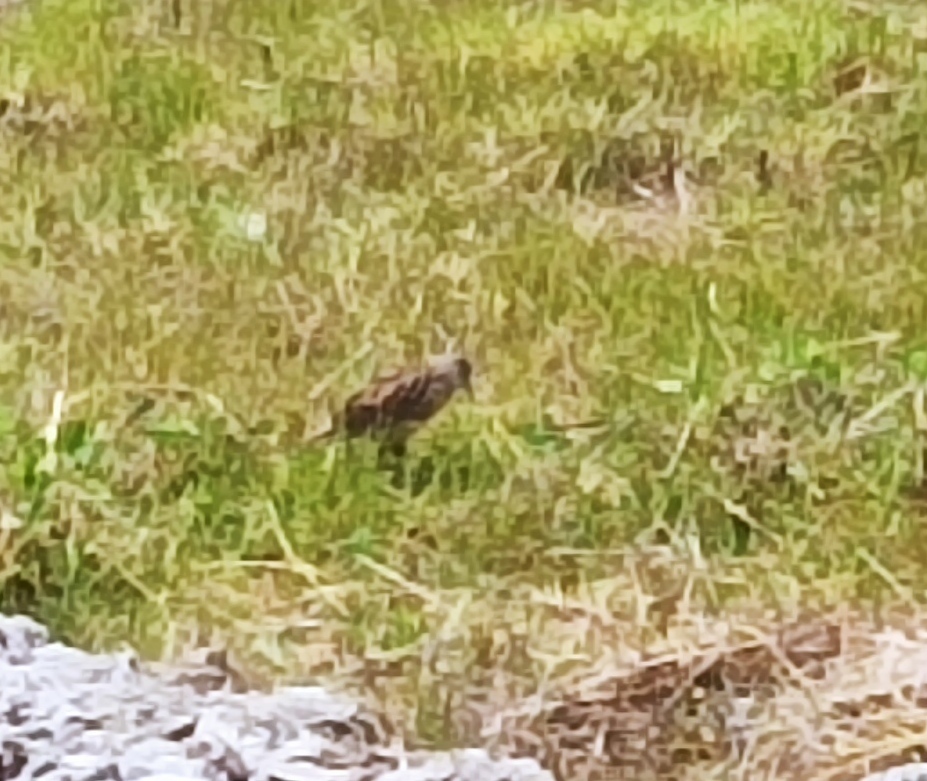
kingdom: Animalia
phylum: Chordata
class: Aves
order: Passeriformes
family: Icteridae
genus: Sturnella
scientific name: Sturnella magna
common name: Eastern meadowlark
